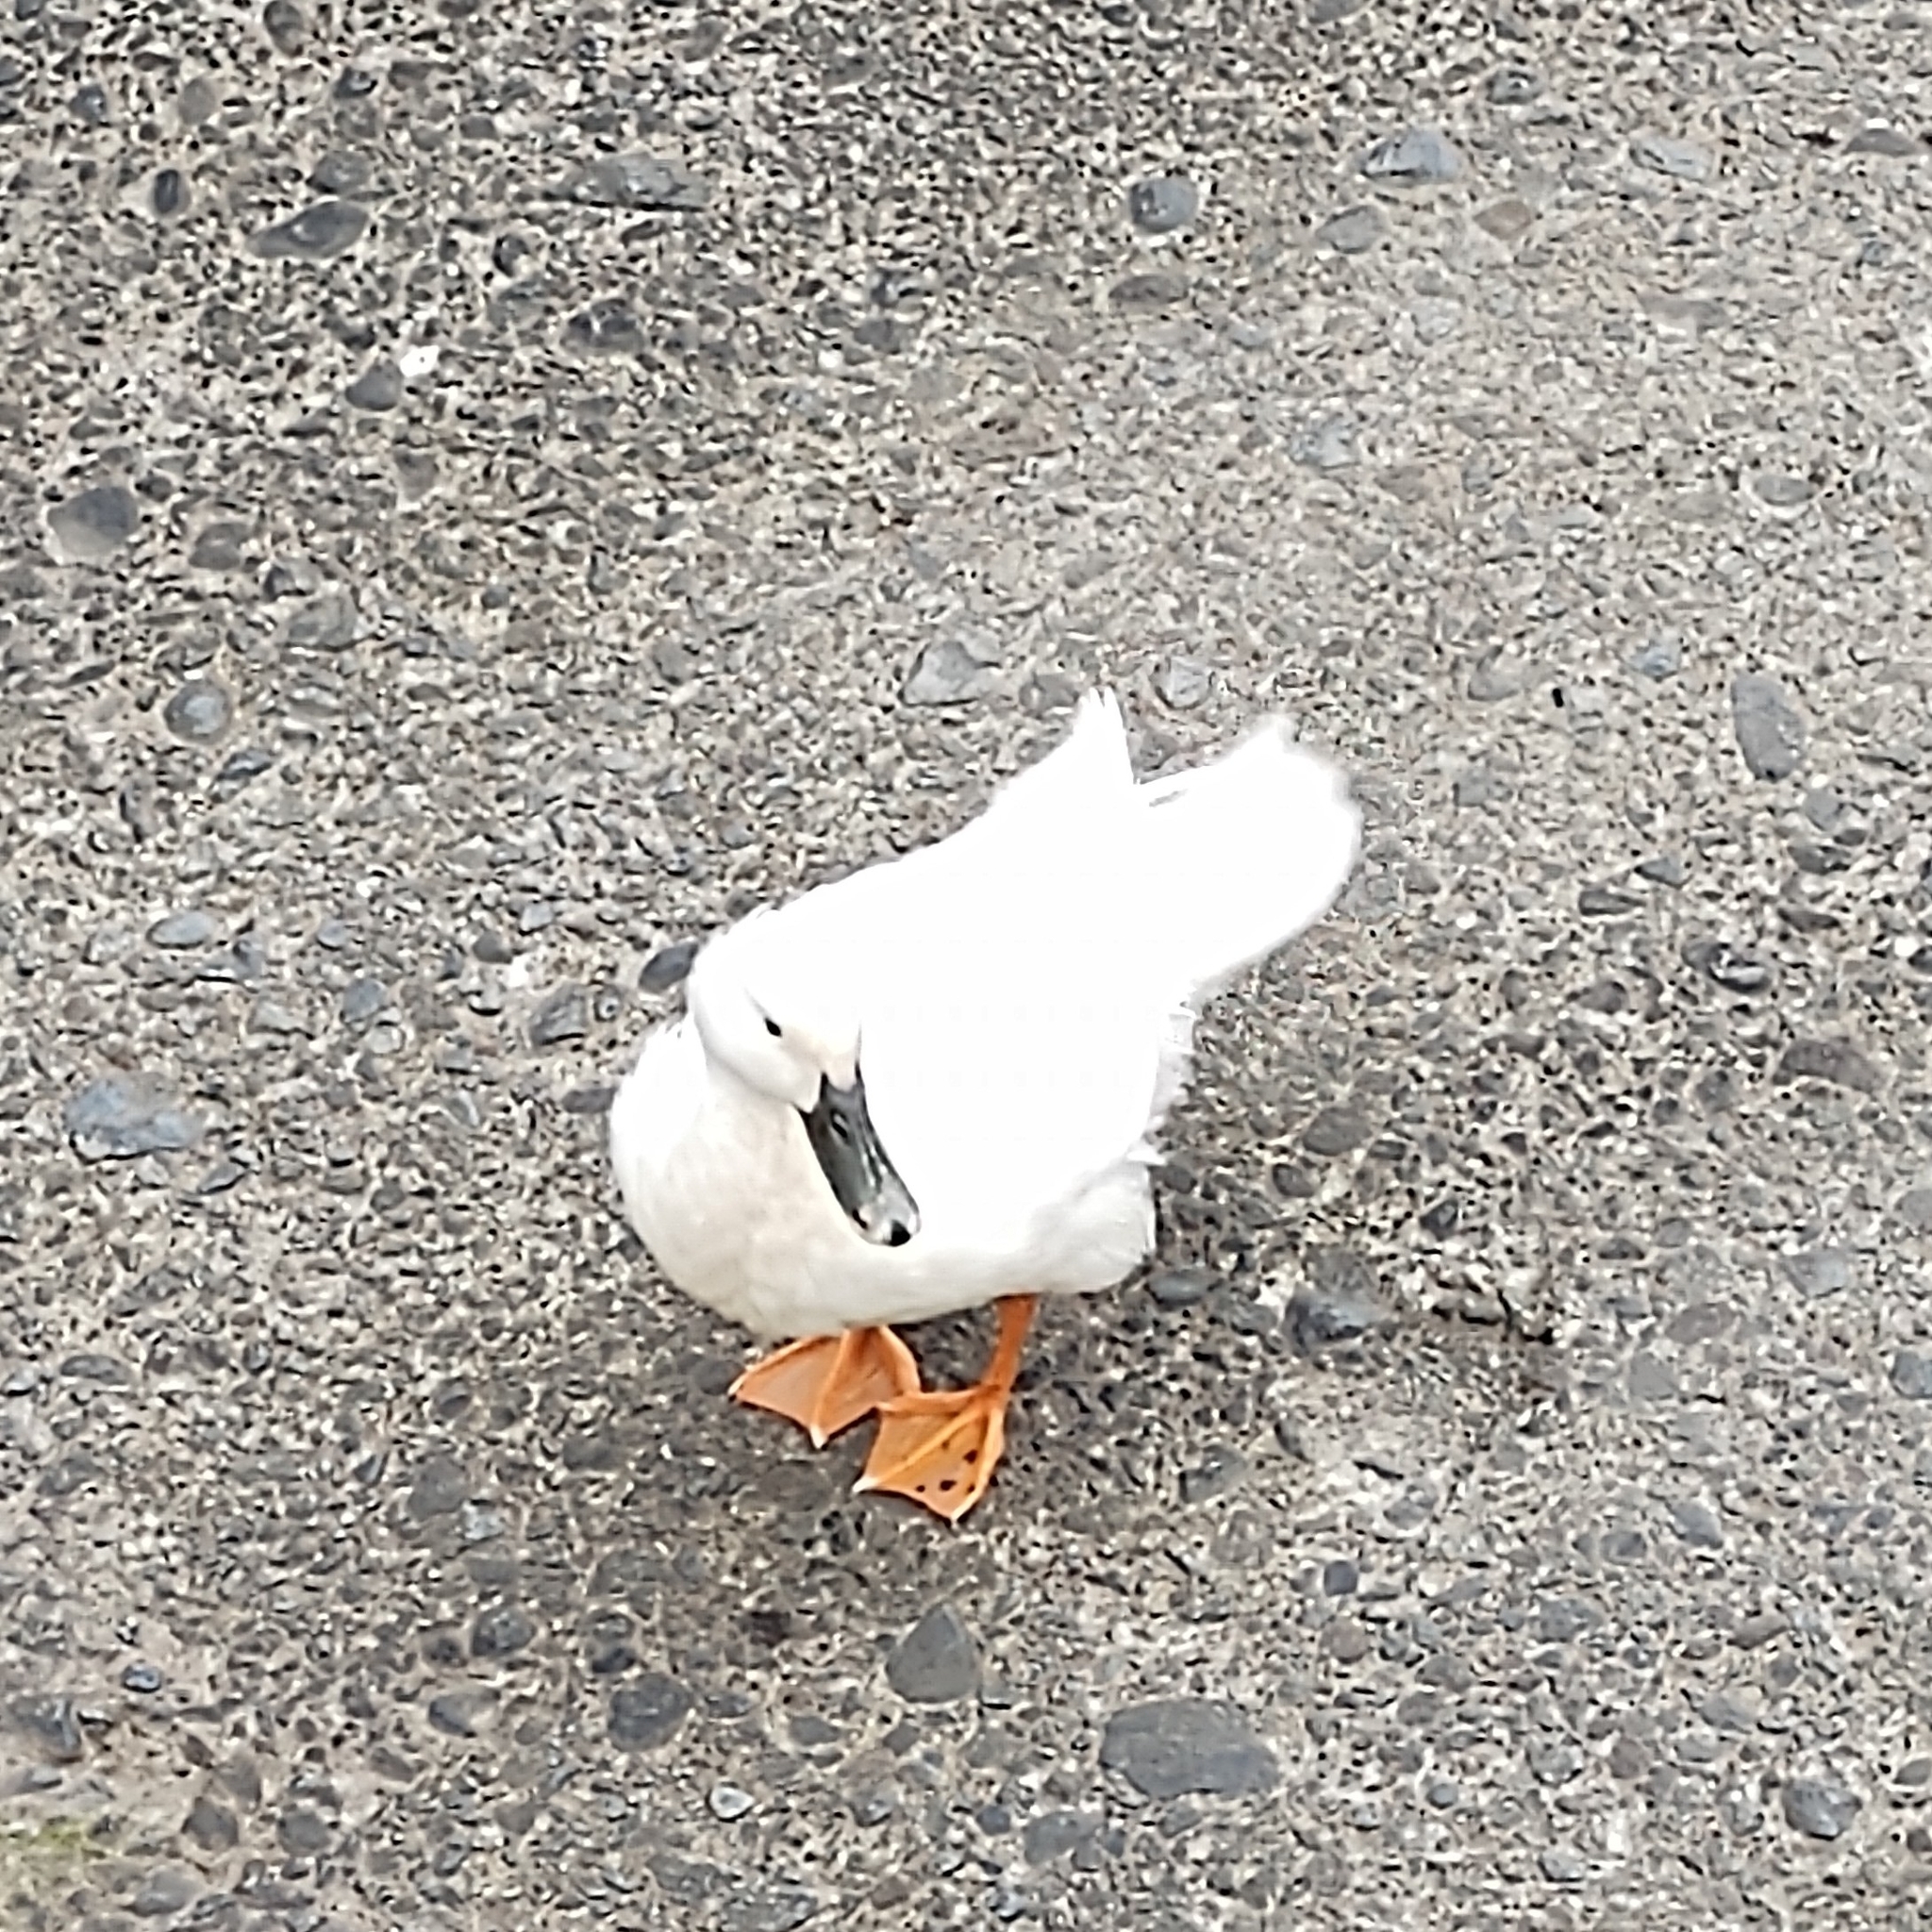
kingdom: Animalia
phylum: Chordata
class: Aves
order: Anseriformes
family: Anatidae
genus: Anas
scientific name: Anas platyrhynchos
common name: Mallard
